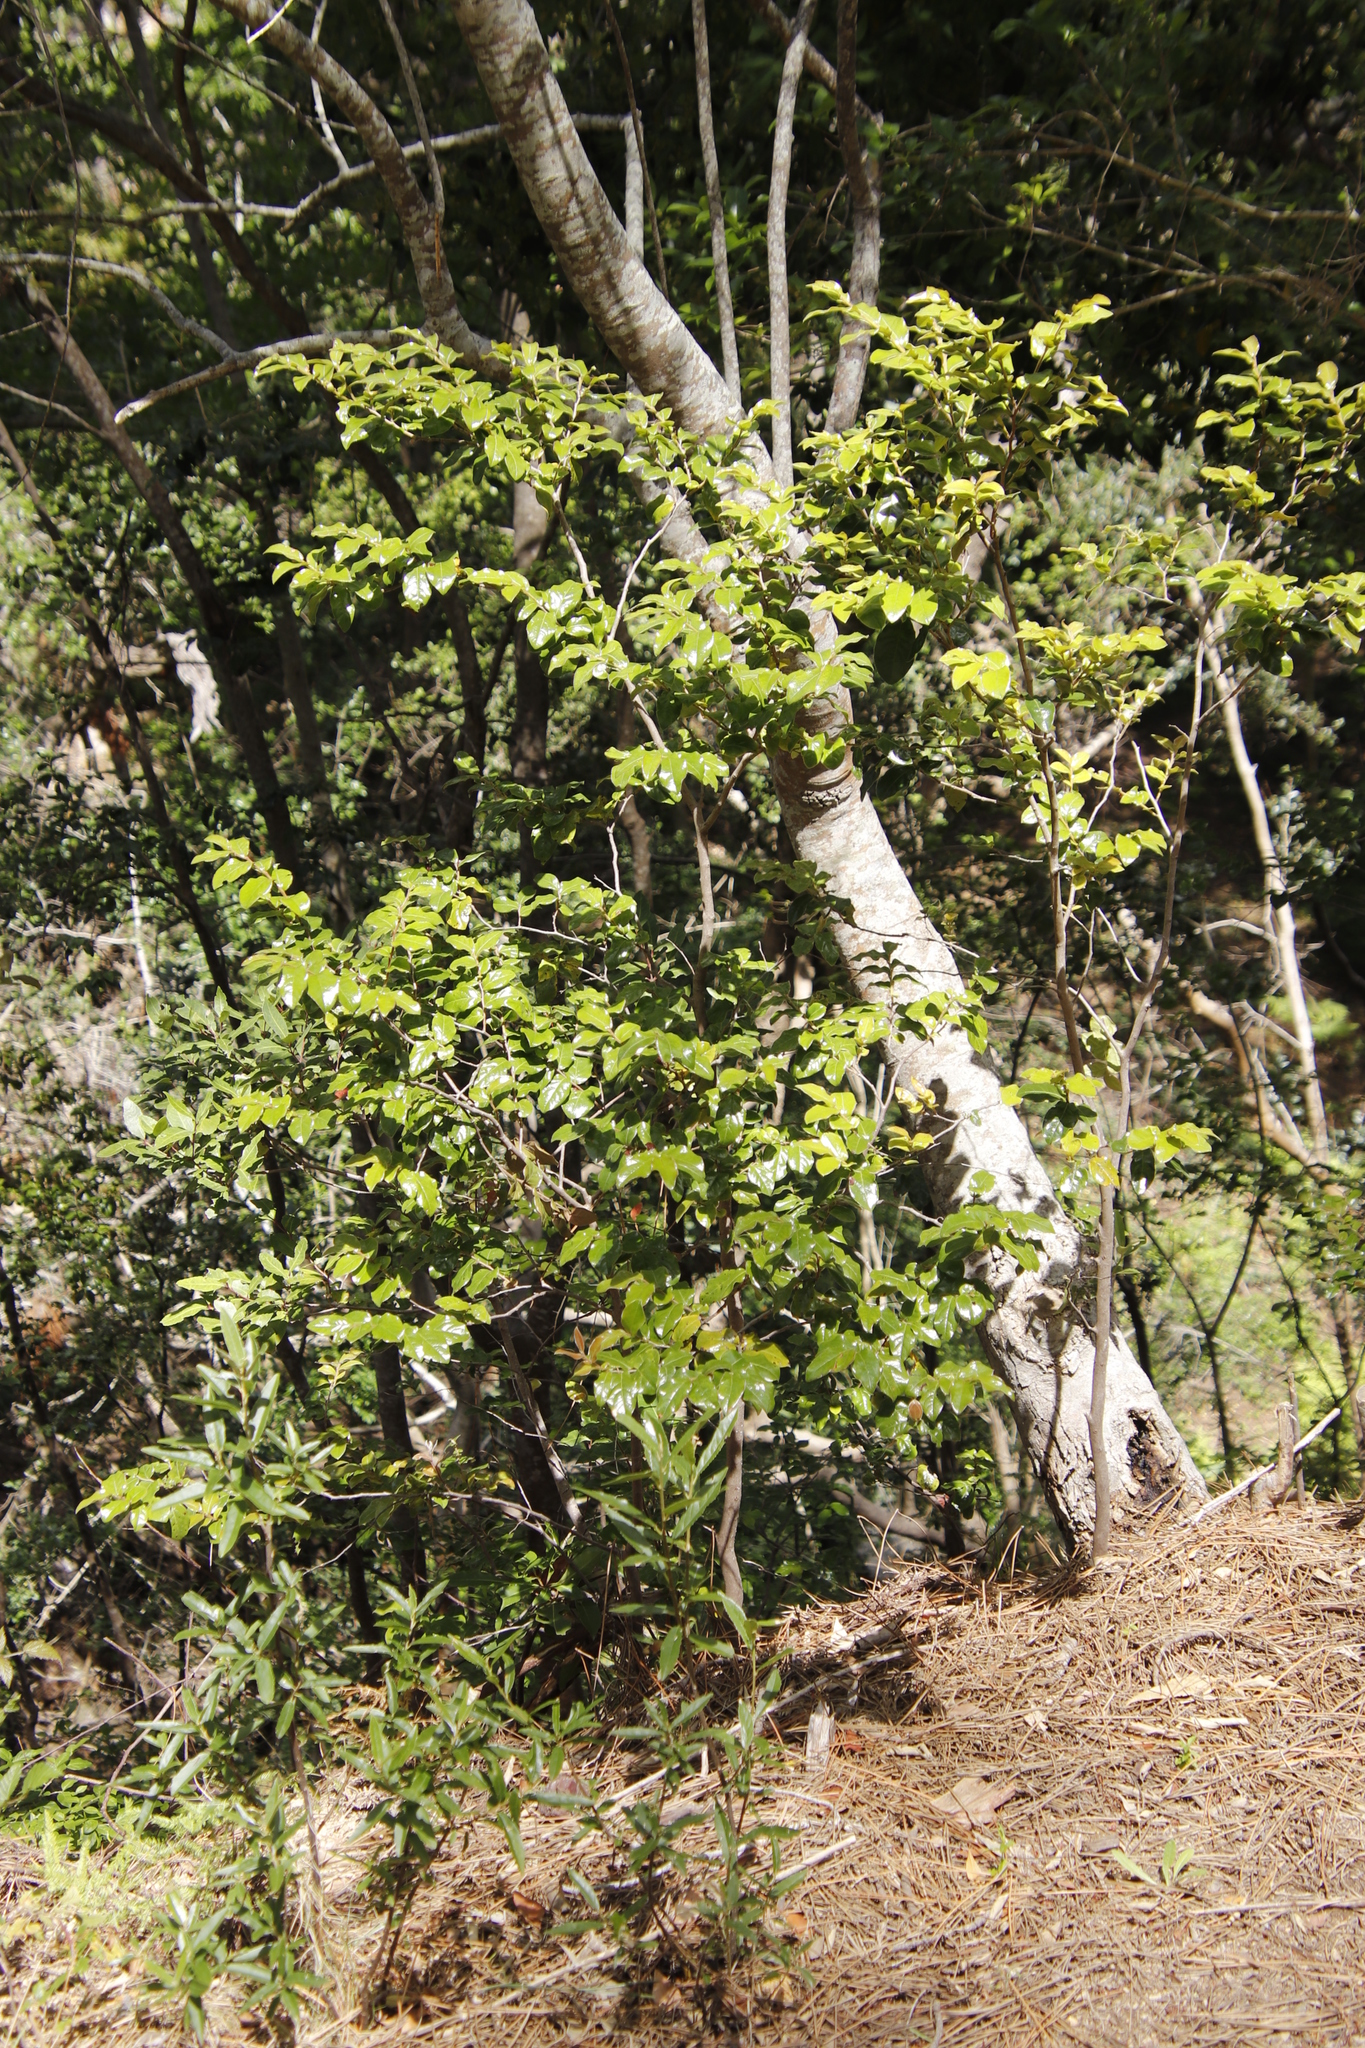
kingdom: Plantae
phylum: Tracheophyta
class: Magnoliopsida
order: Ericales
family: Ebenaceae
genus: Diospyros
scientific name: Diospyros whyteana
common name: Bladder-nut
